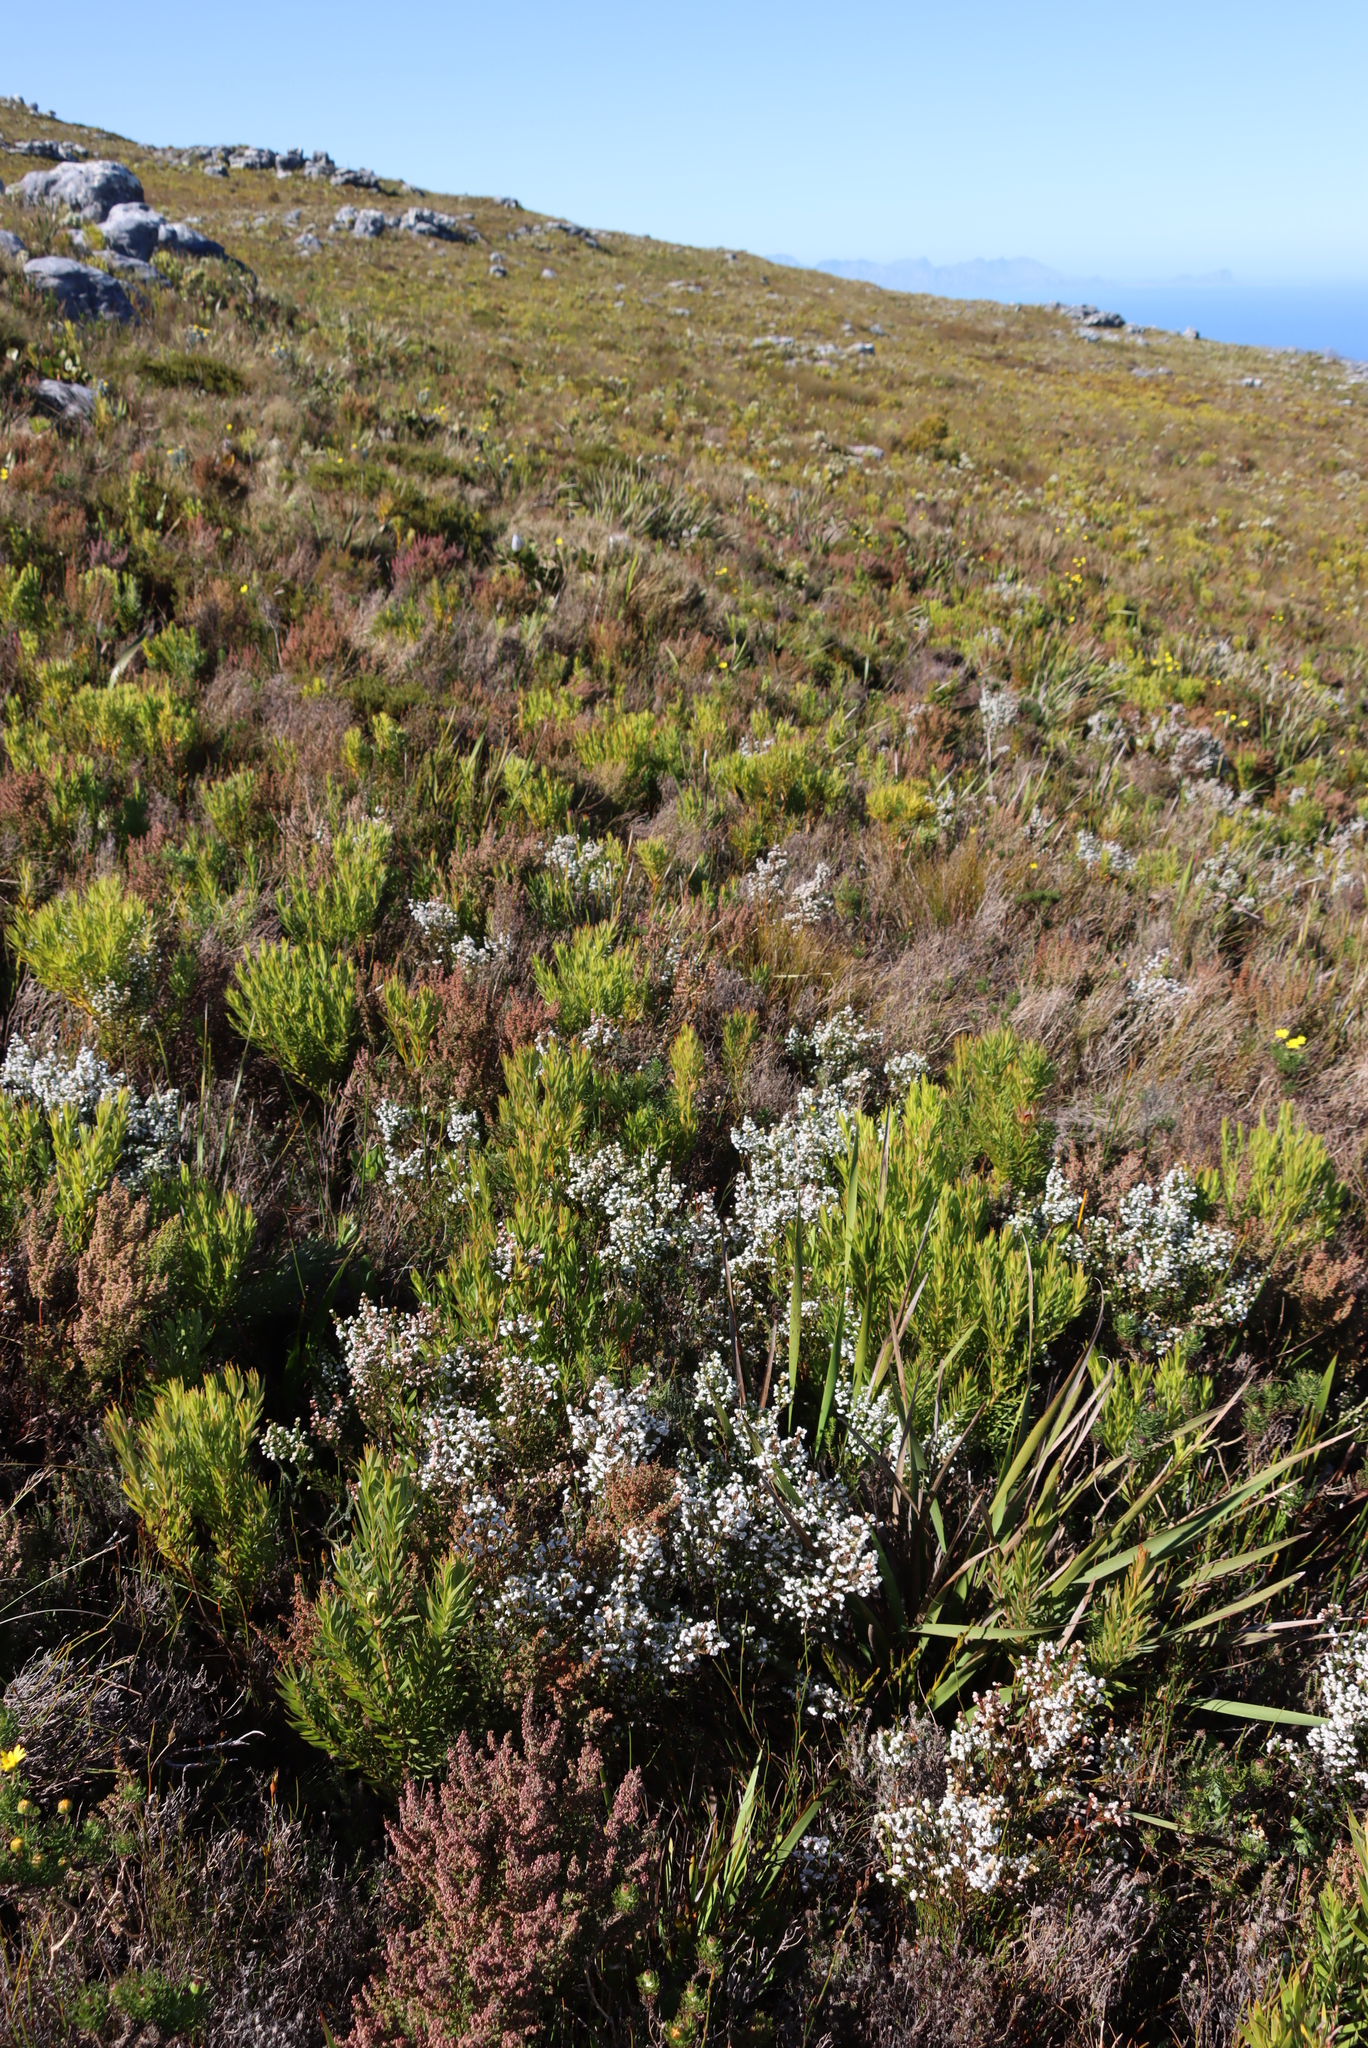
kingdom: Plantae
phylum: Tracheophyta
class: Magnoliopsida
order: Ericales
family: Ericaceae
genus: Erica
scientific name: Erica calycina
